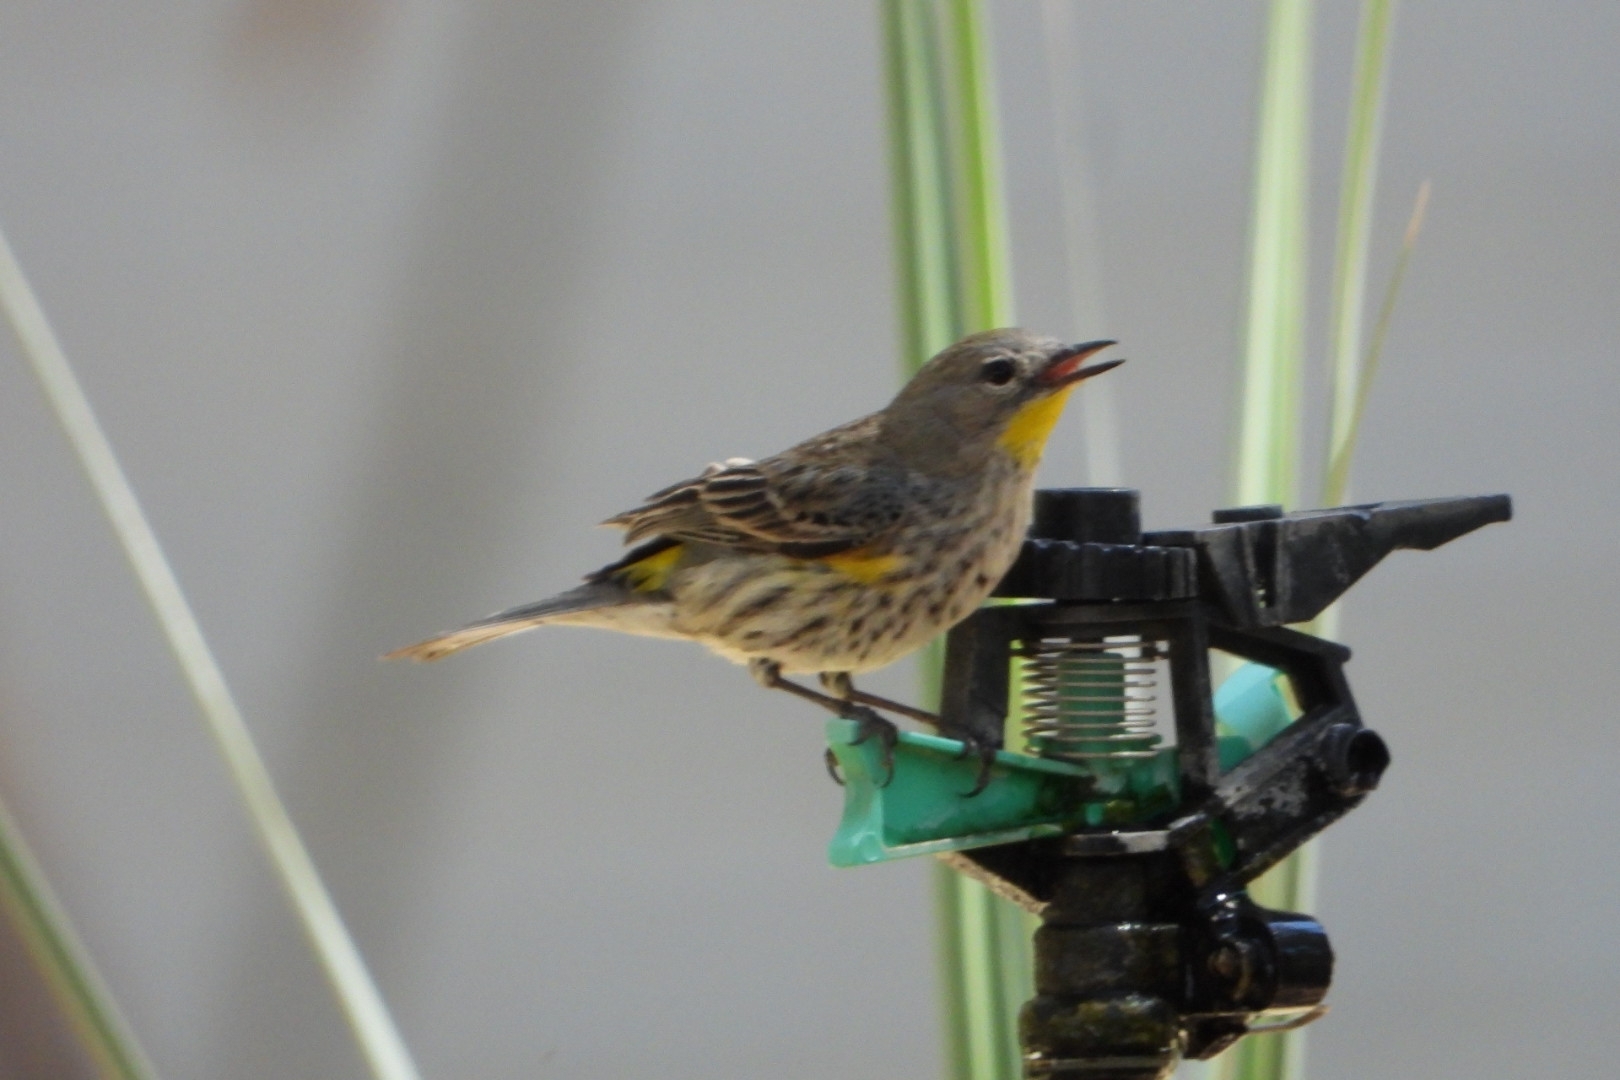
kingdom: Animalia
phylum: Chordata
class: Aves
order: Passeriformes
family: Parulidae
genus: Setophaga
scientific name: Setophaga auduboni
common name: Audubon's warbler
